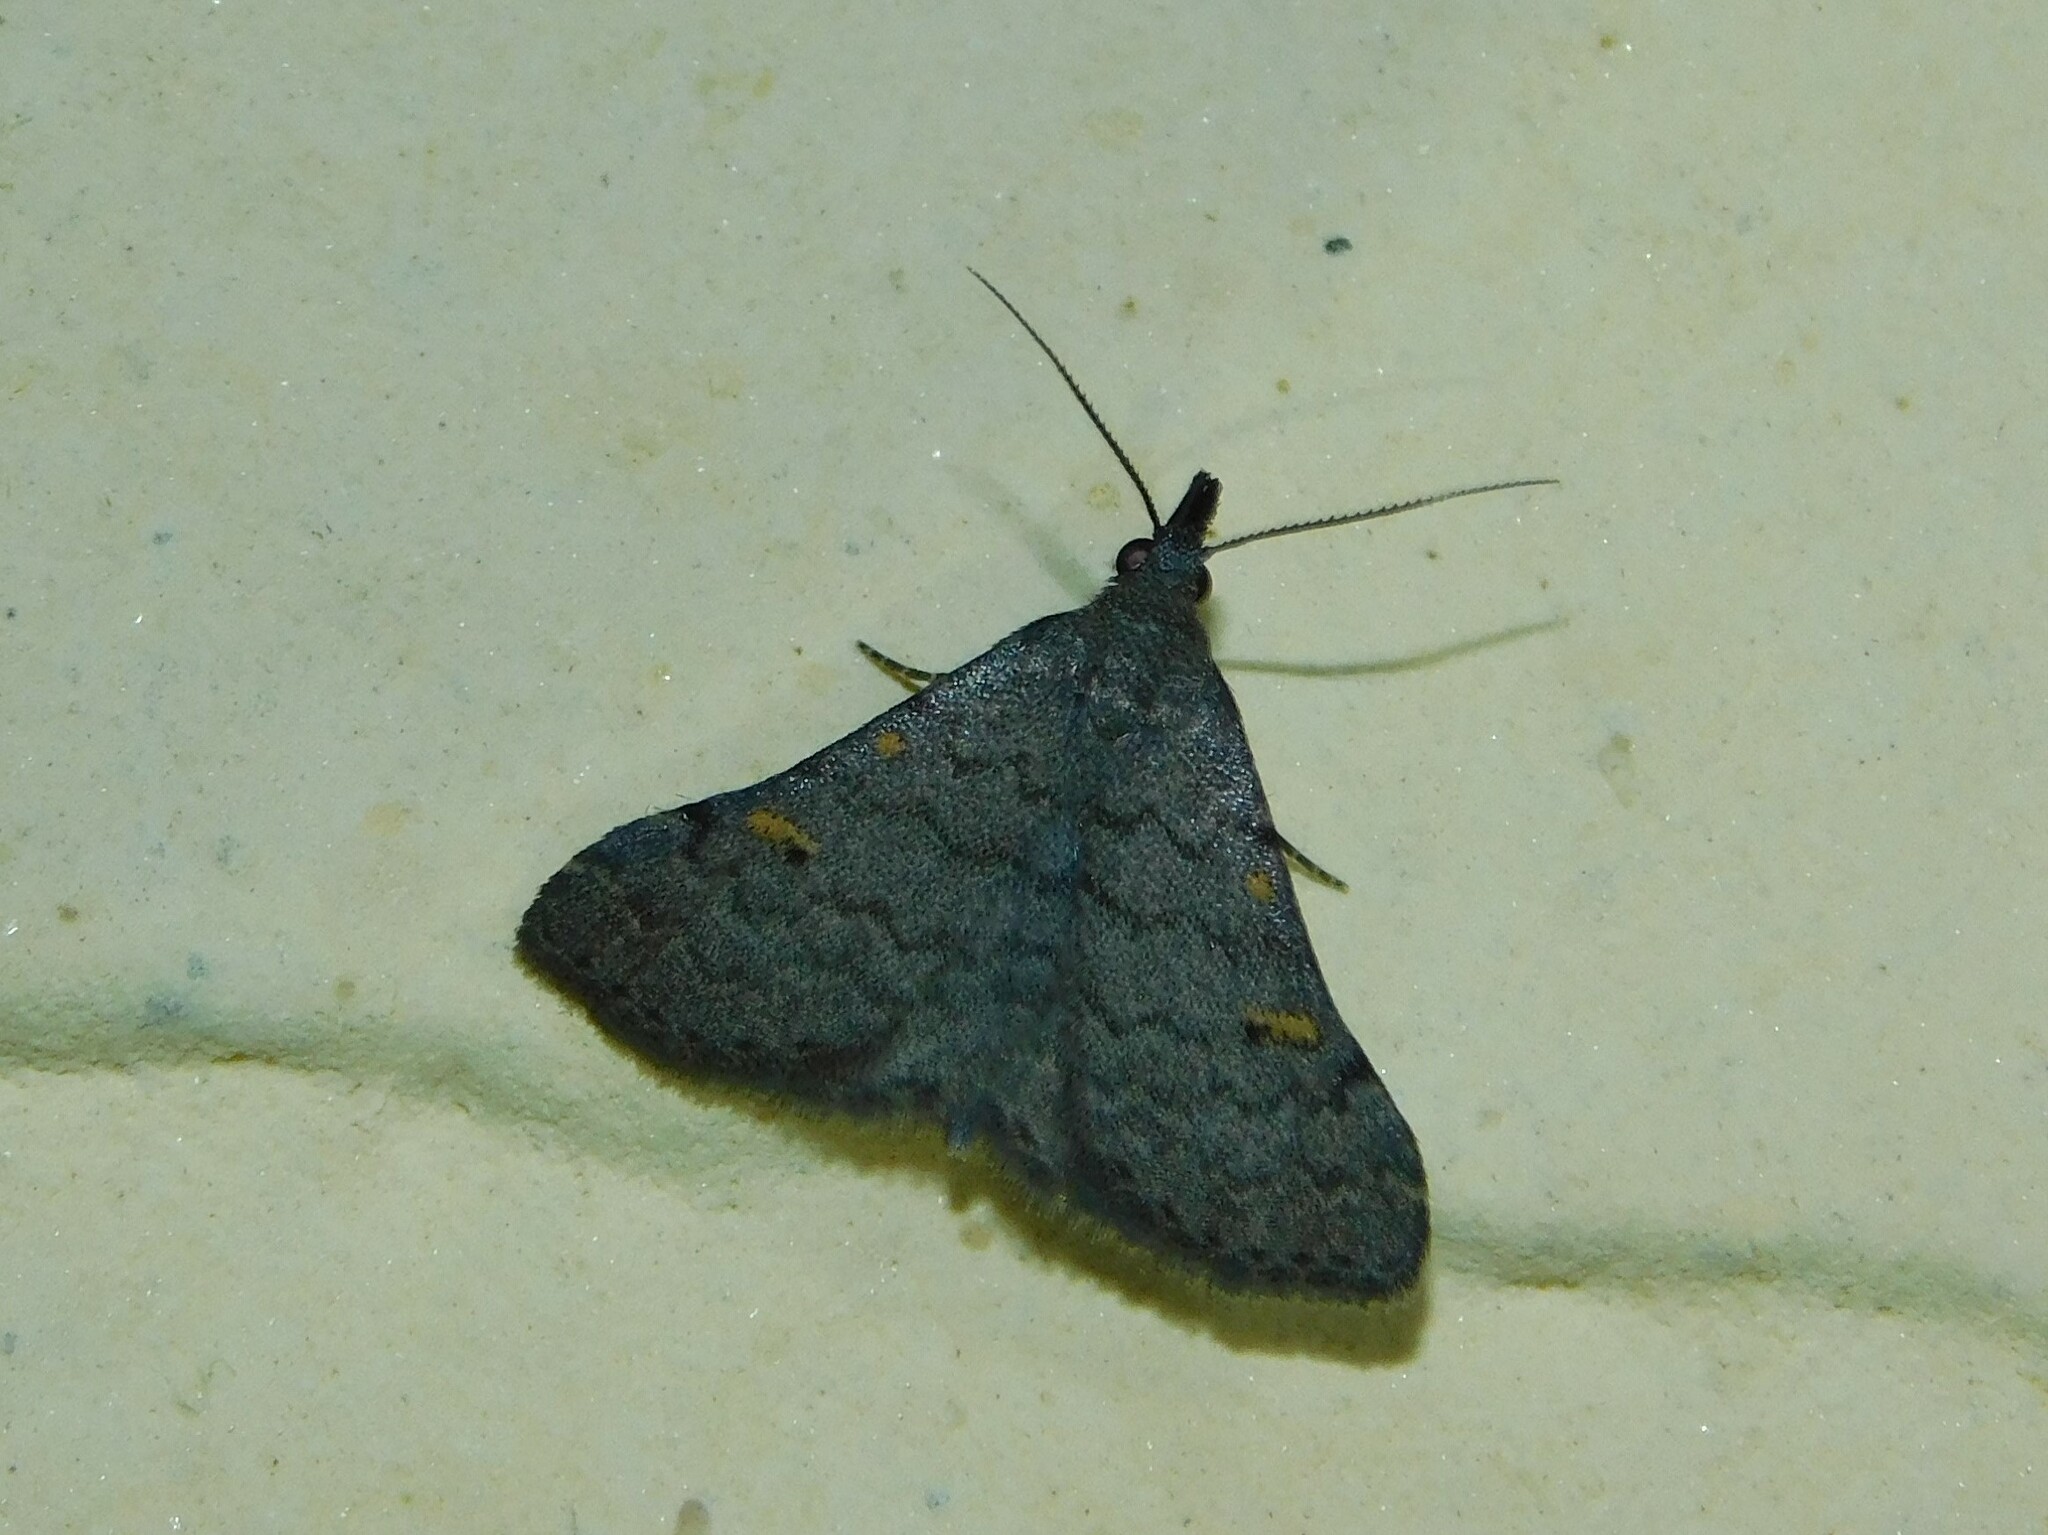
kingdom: Animalia
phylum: Arthropoda
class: Insecta
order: Lepidoptera
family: Erebidae
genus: Naarda
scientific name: Naarda xanthonephroides
